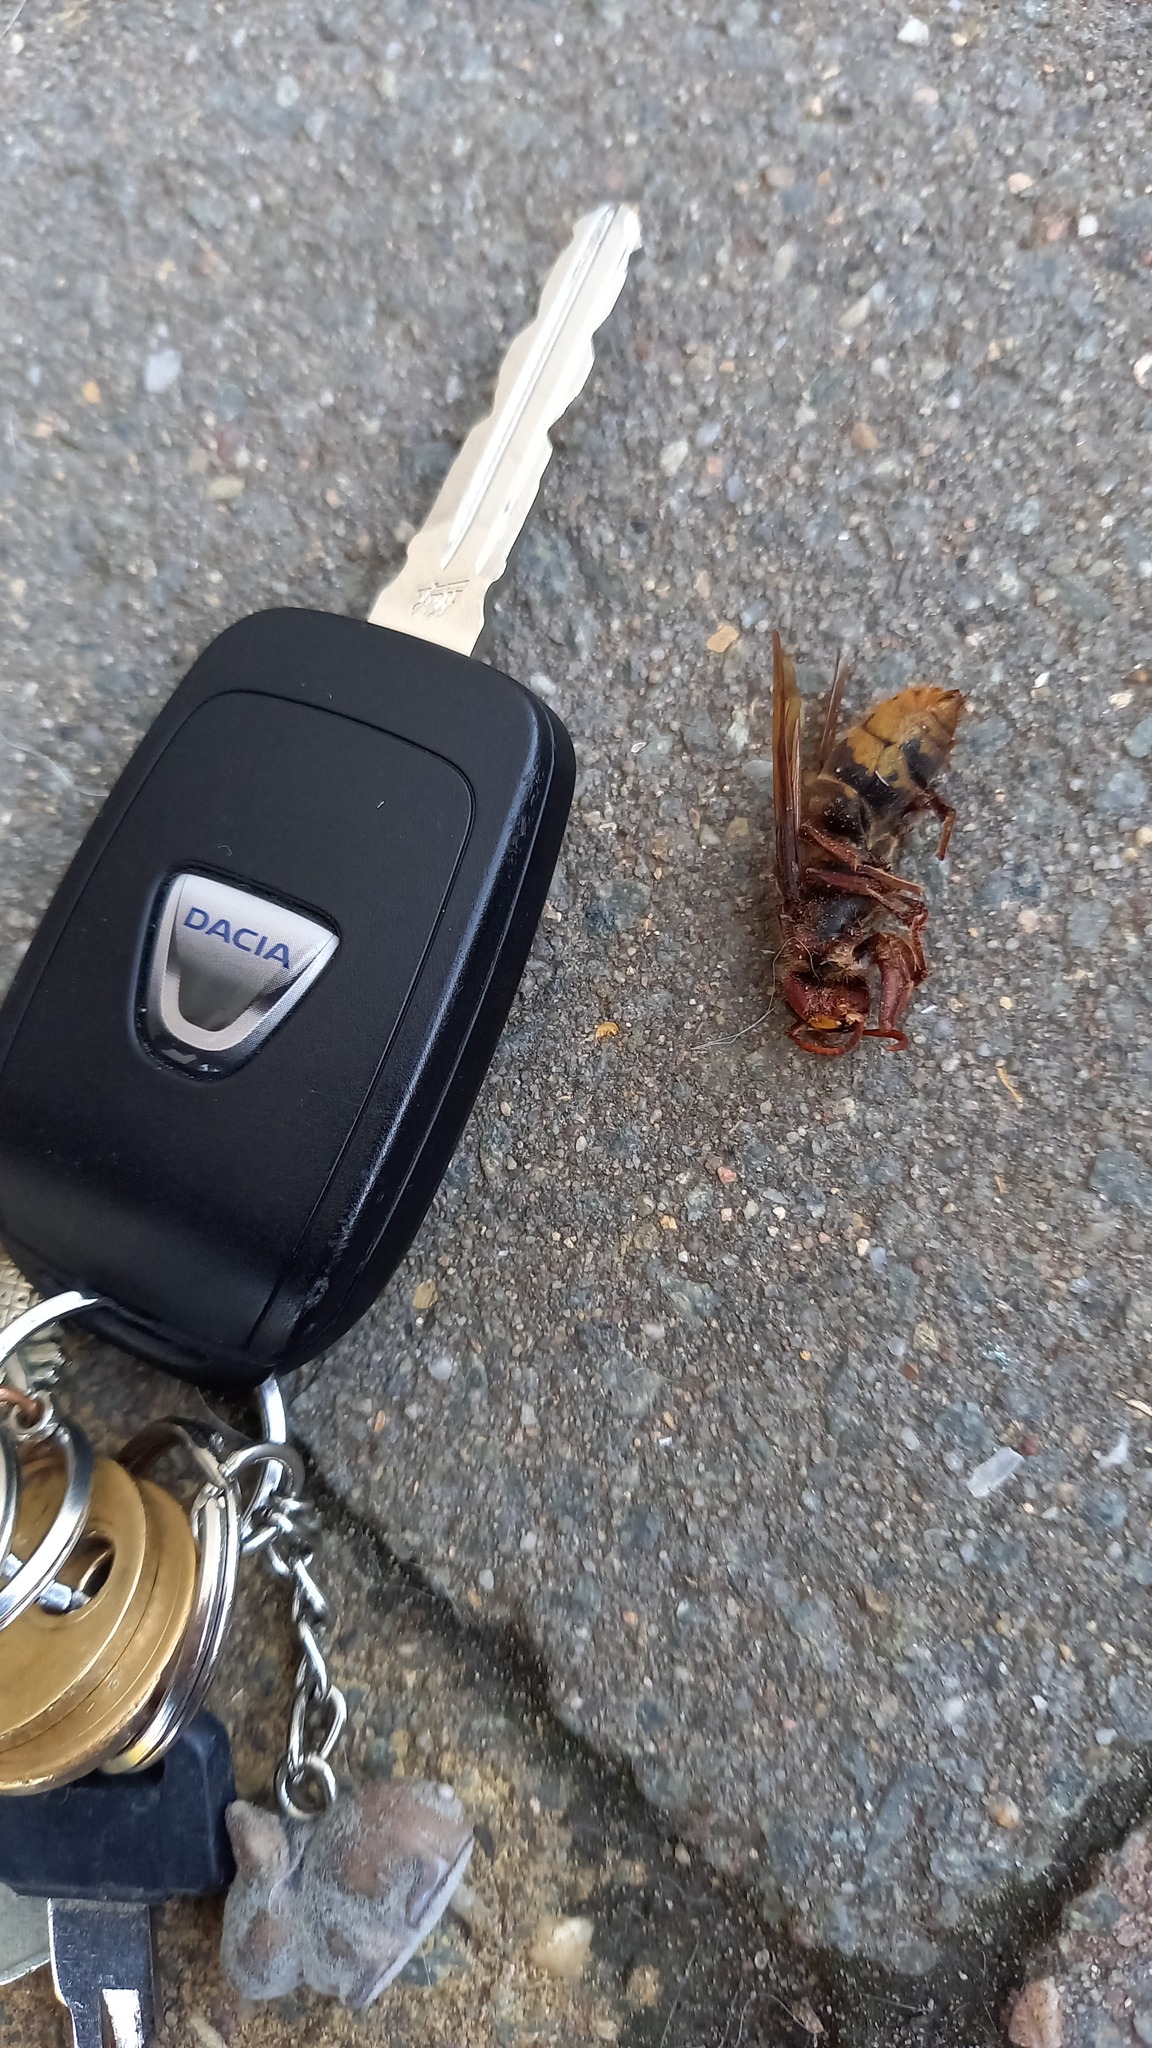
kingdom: Animalia
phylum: Arthropoda
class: Insecta
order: Hymenoptera
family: Vespidae
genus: Vespa
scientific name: Vespa crabro
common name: Hornet
